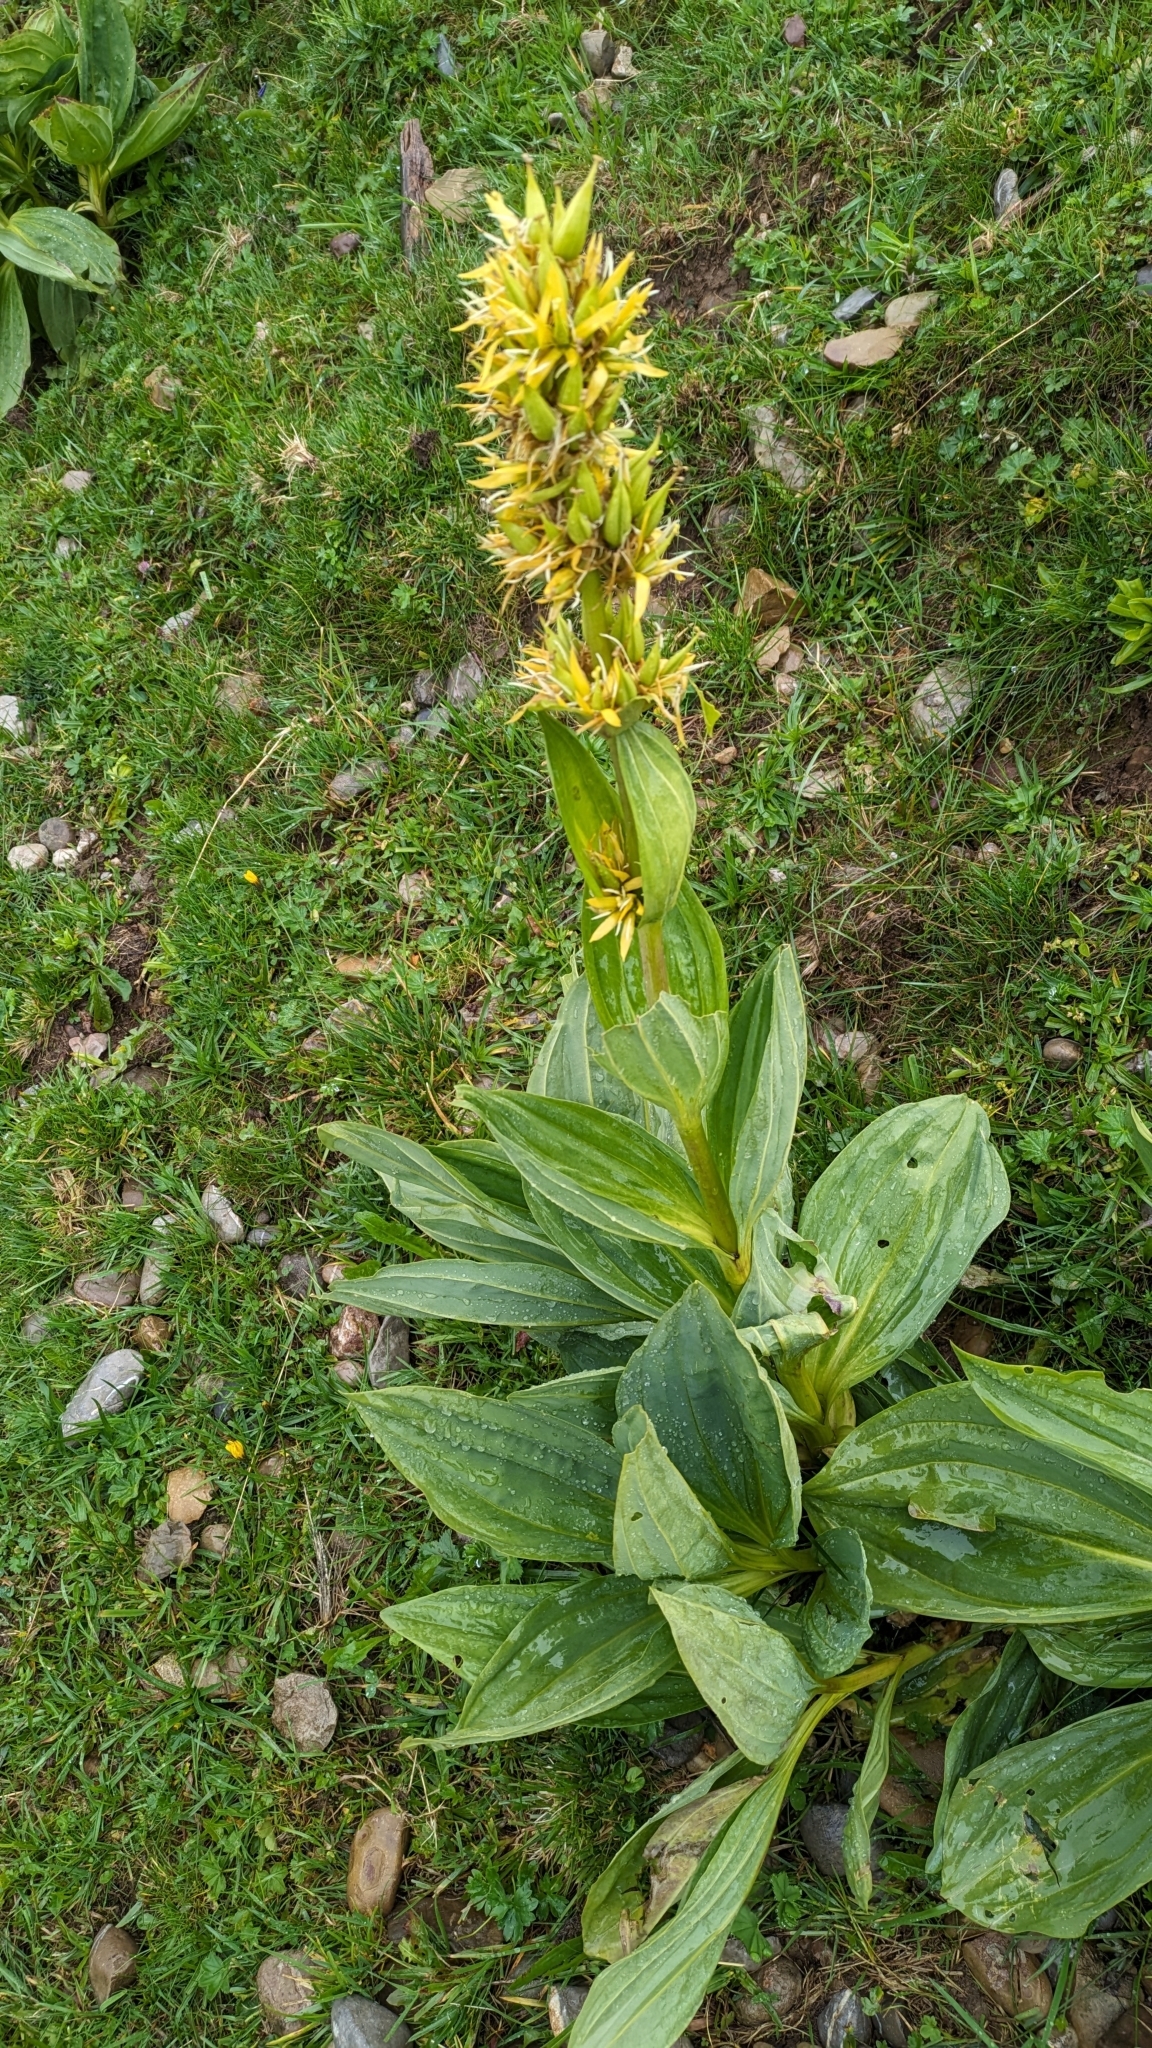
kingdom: Plantae
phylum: Tracheophyta
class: Magnoliopsida
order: Gentianales
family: Gentianaceae
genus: Gentiana
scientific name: Gentiana lutea
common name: Great yellow gentian
